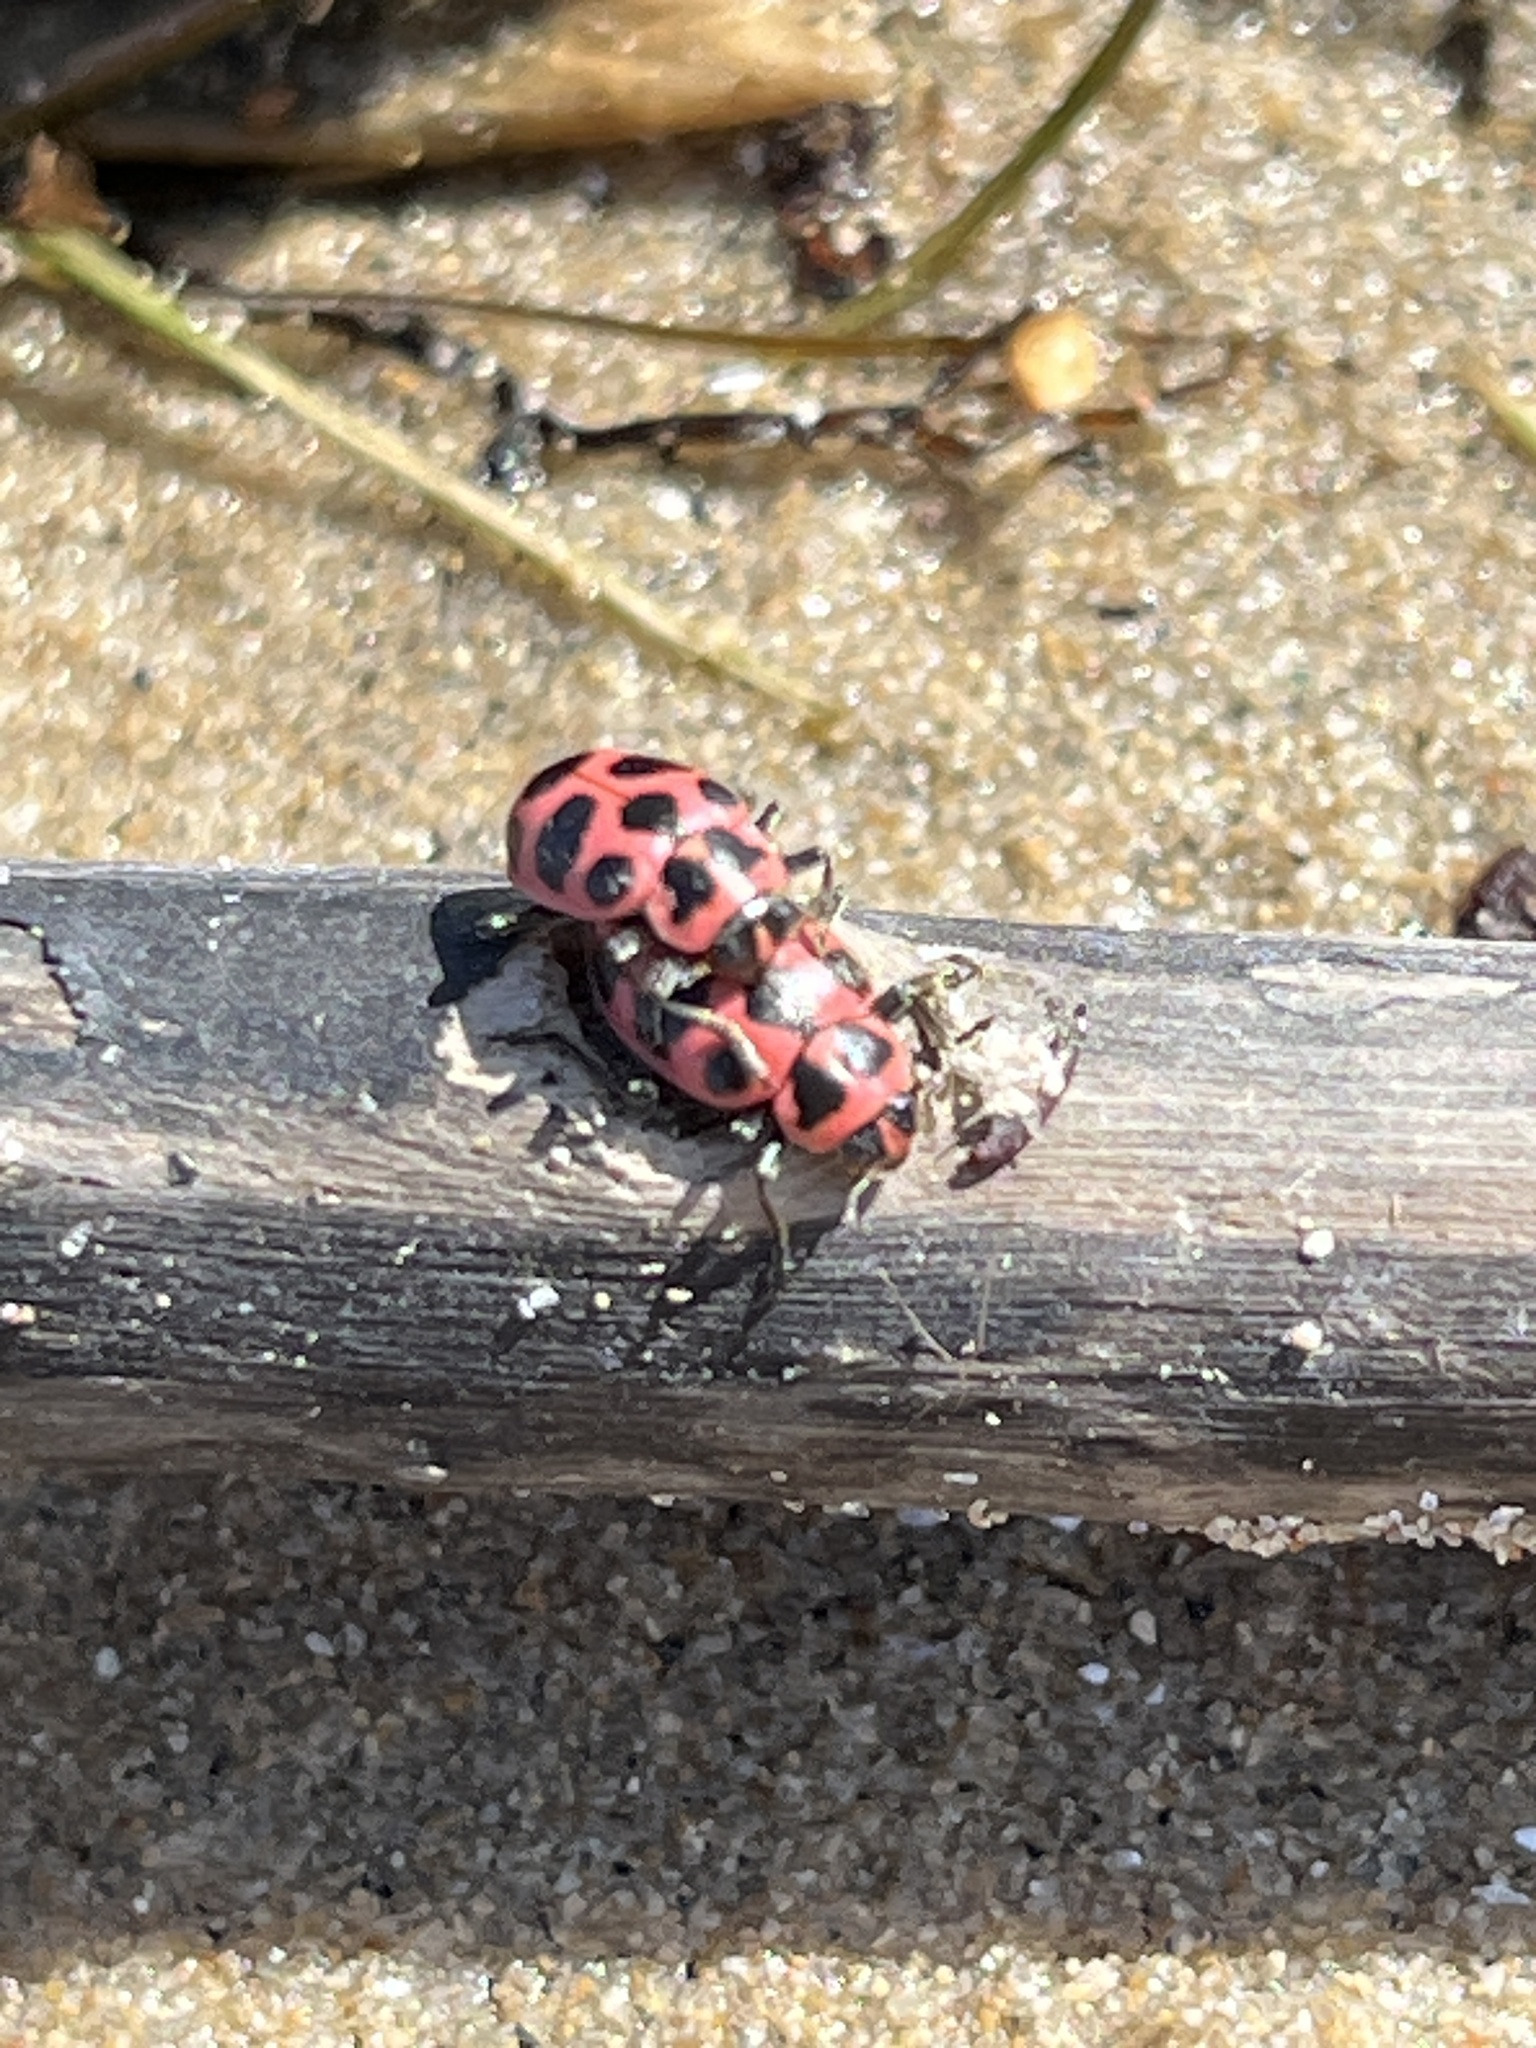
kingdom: Animalia
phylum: Arthropoda
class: Insecta
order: Coleoptera
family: Coccinellidae
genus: Coleomegilla
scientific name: Coleomegilla maculata
